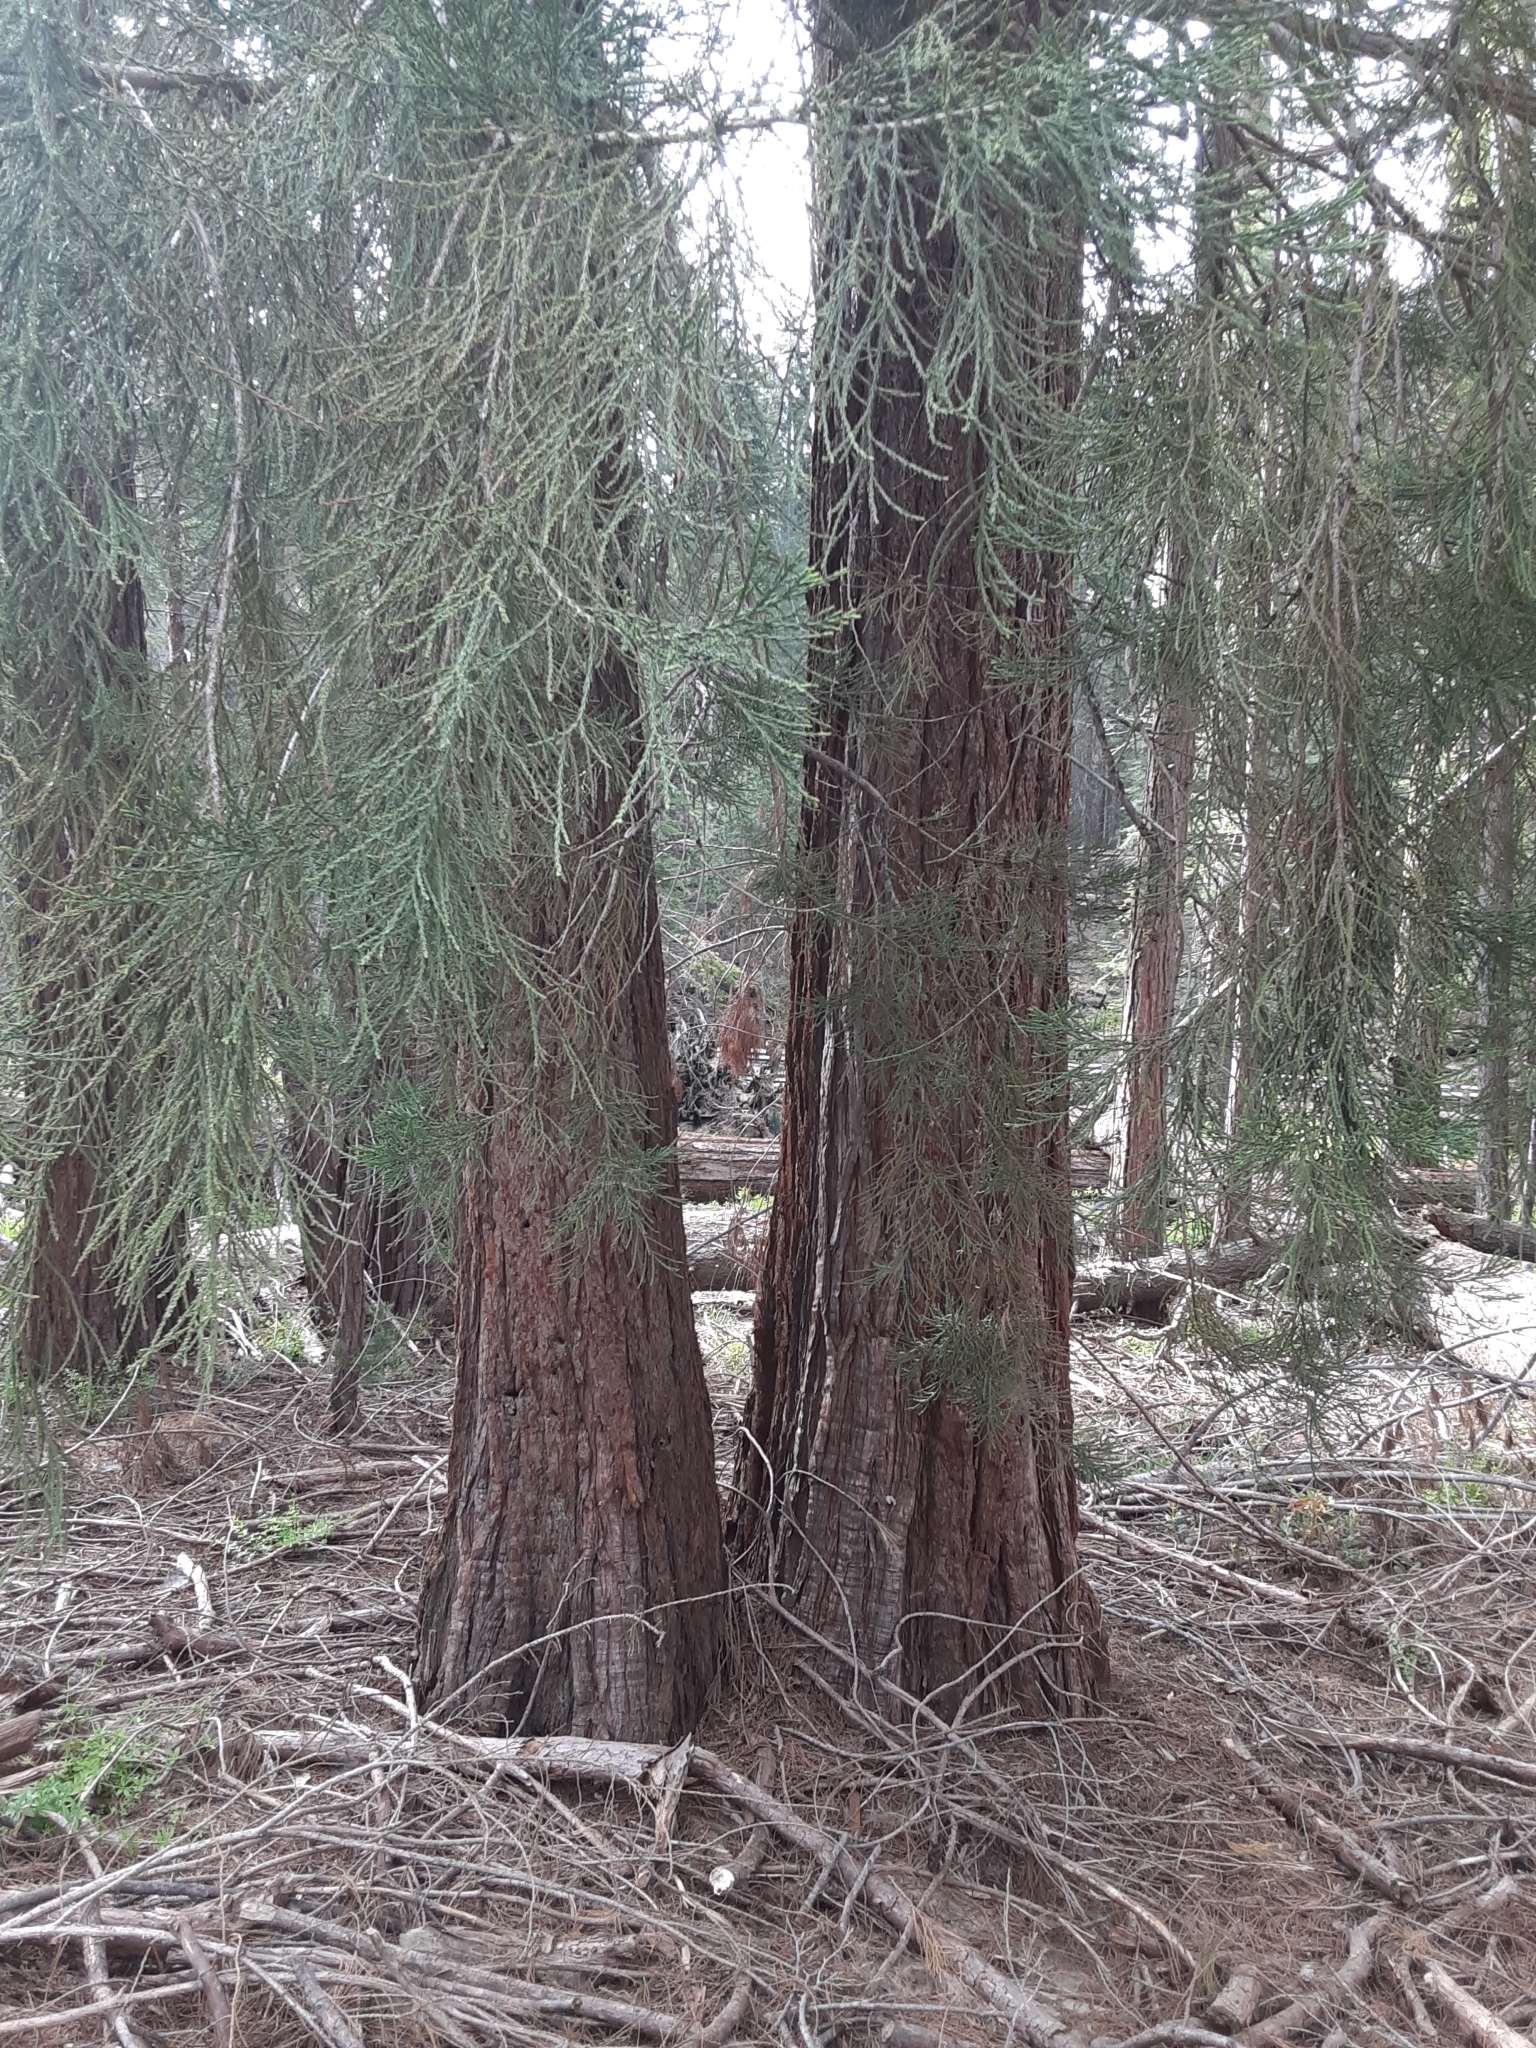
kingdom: Plantae
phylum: Tracheophyta
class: Pinopsida
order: Pinales
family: Cupressaceae
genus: Sequoiadendron
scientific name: Sequoiadendron giganteum
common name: Wellingtonia
